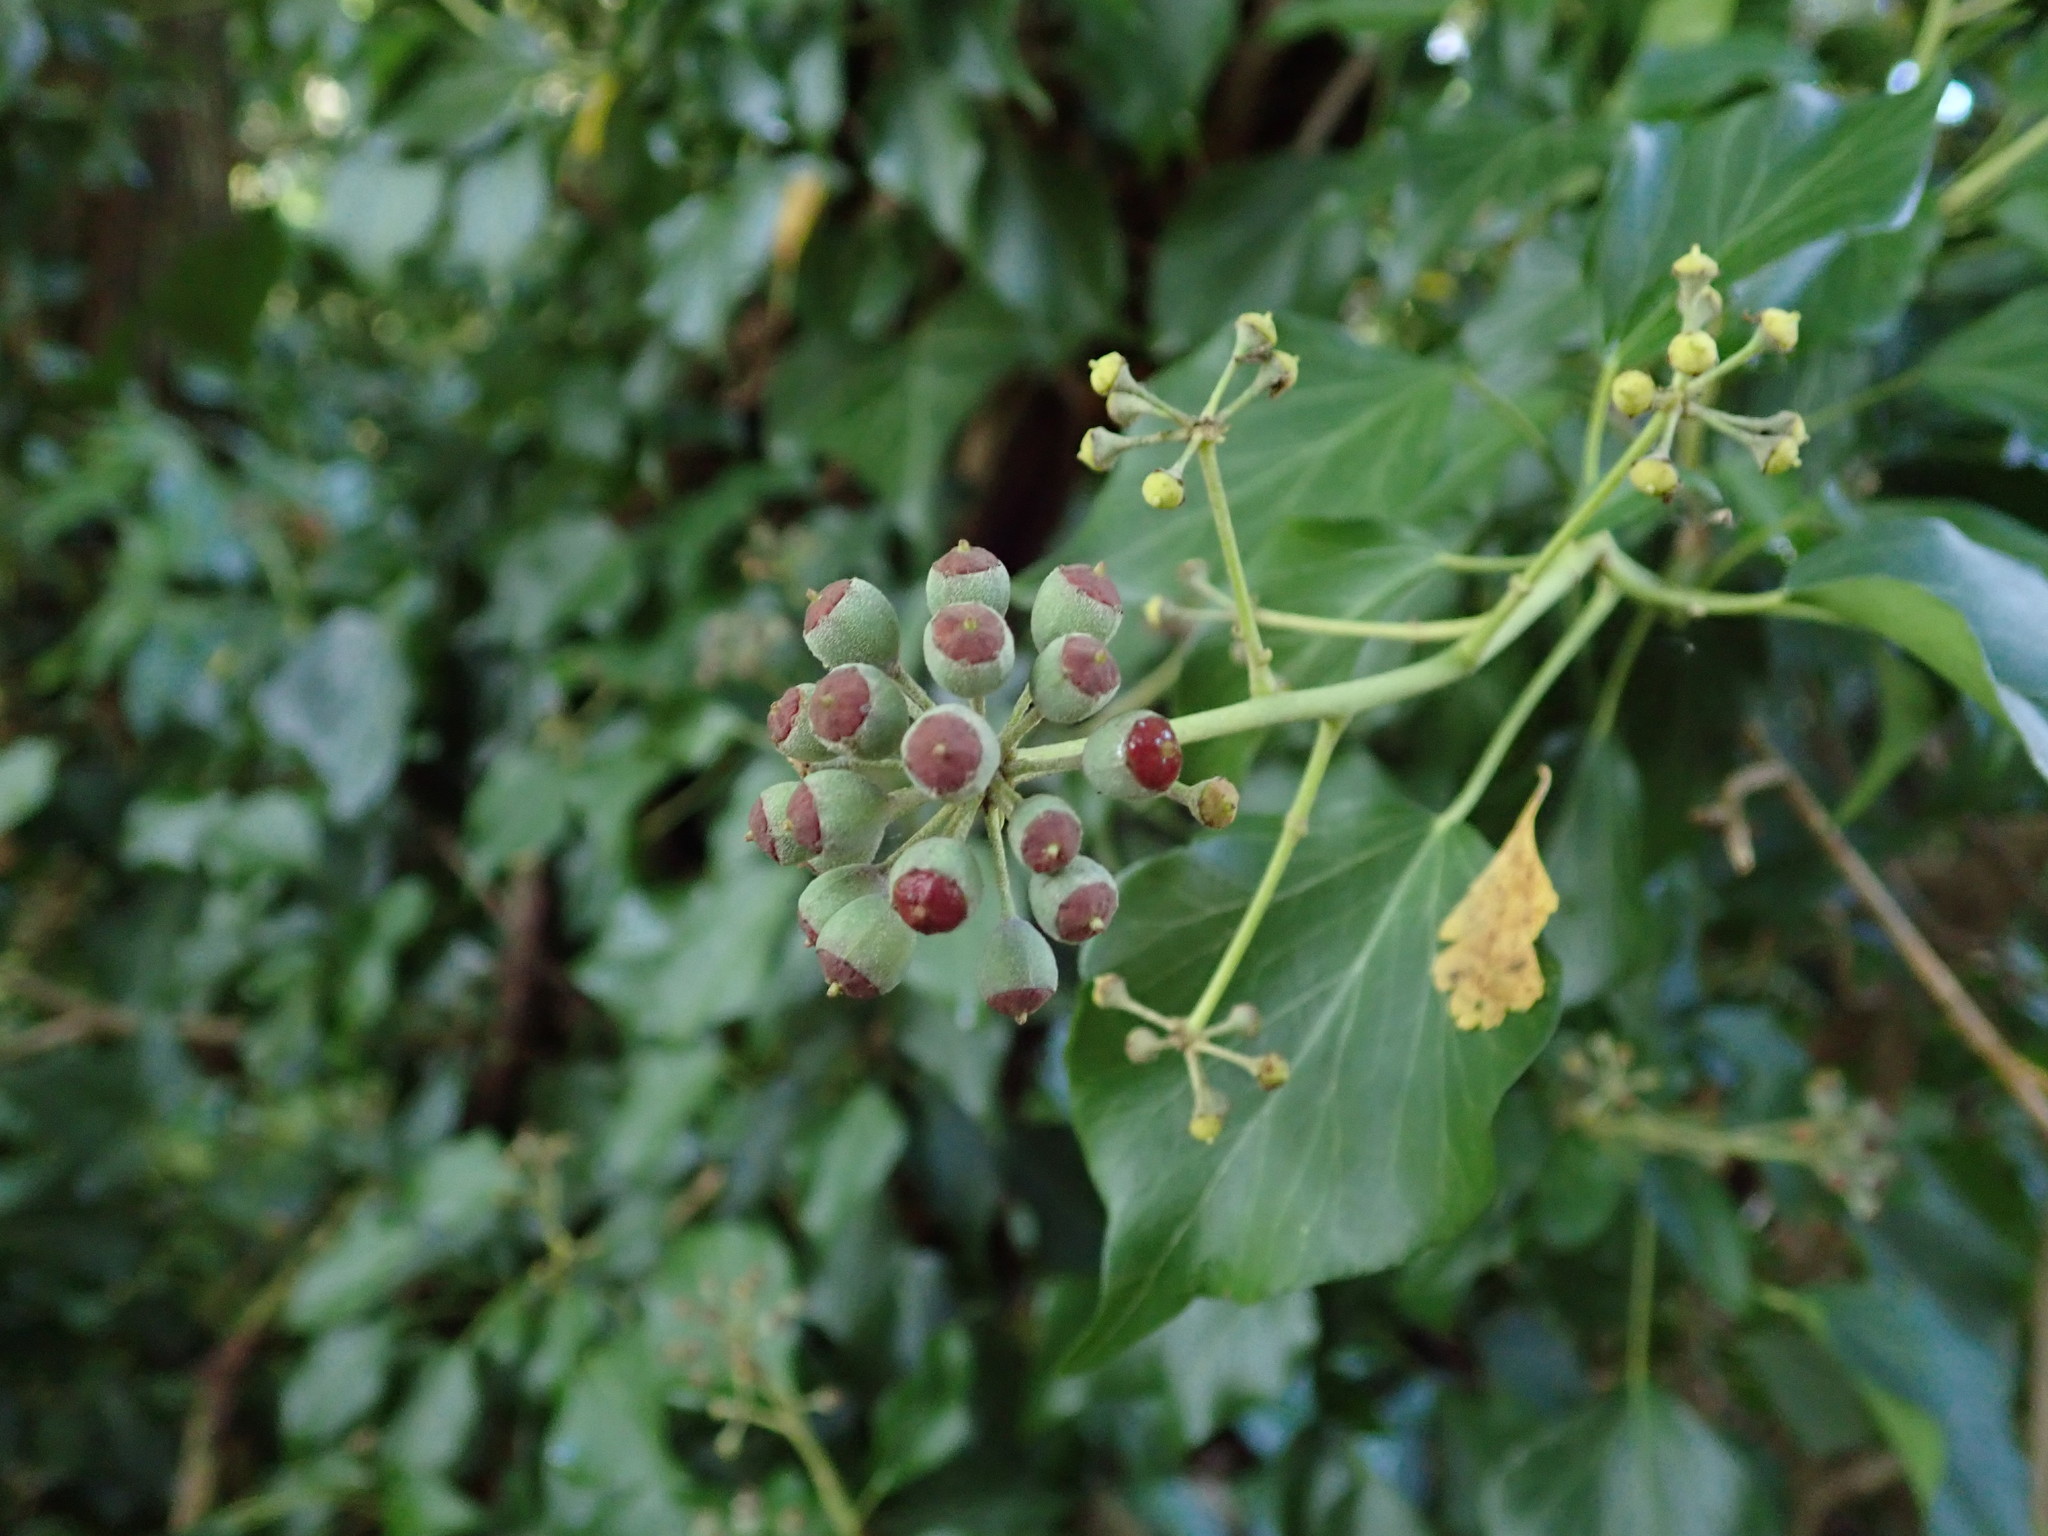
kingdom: Plantae
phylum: Tracheophyta
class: Magnoliopsida
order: Apiales
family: Araliaceae
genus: Hedera
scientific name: Hedera helix
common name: Ivy
